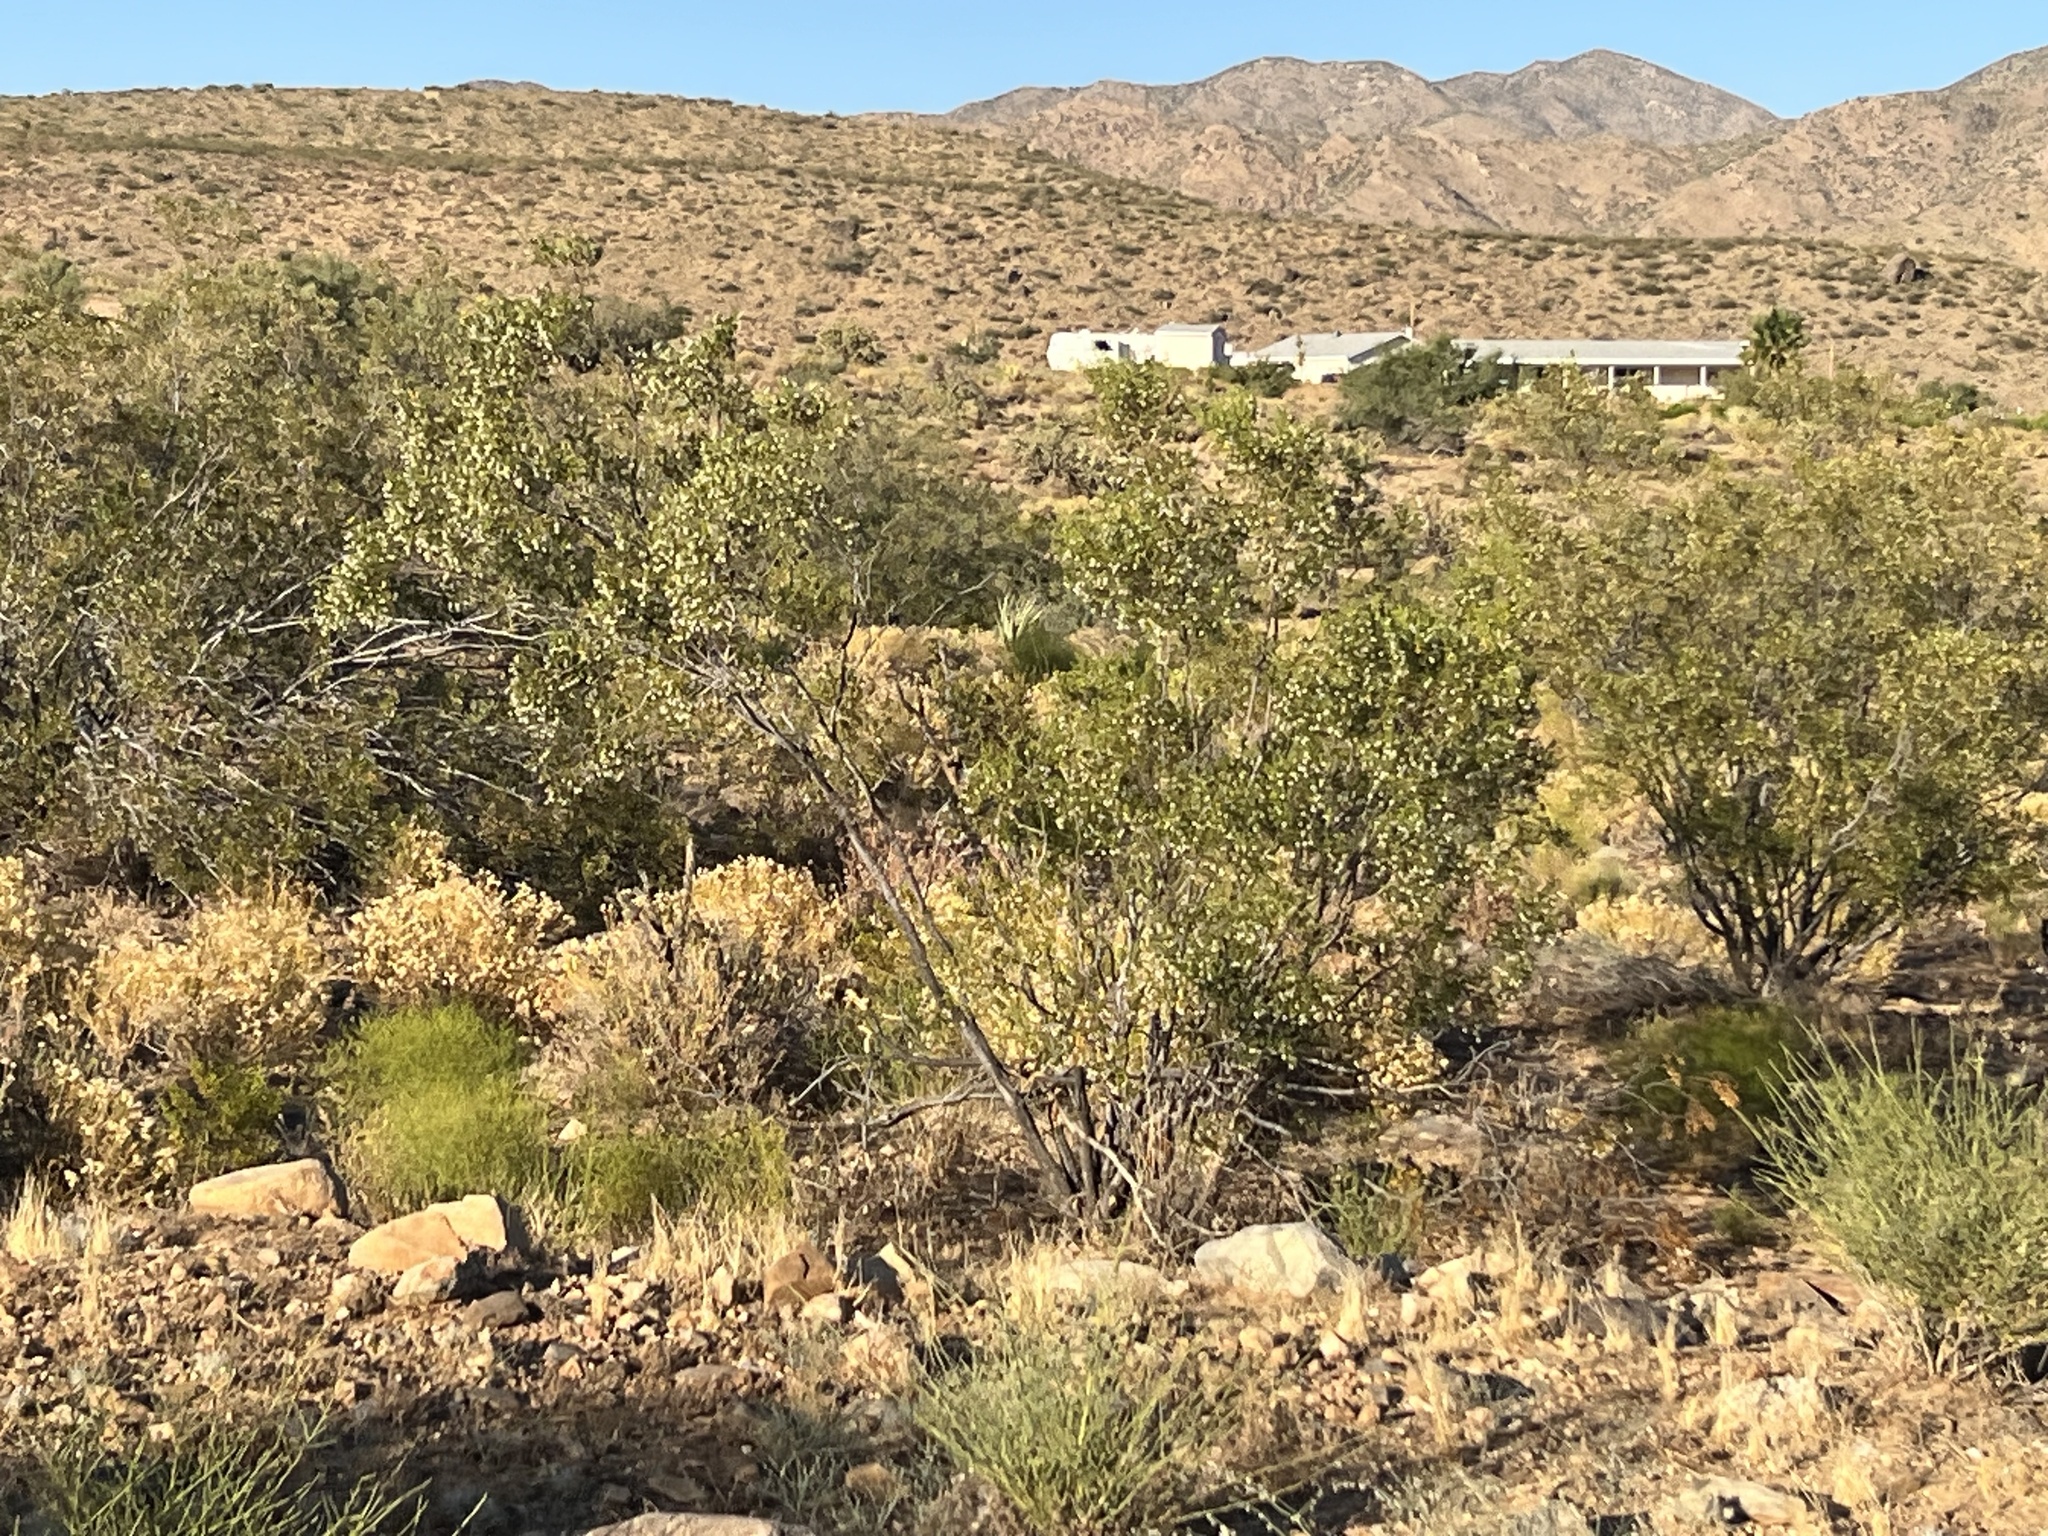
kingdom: Plantae
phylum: Tracheophyta
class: Magnoliopsida
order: Zygophyllales
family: Zygophyllaceae
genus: Larrea
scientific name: Larrea tridentata
